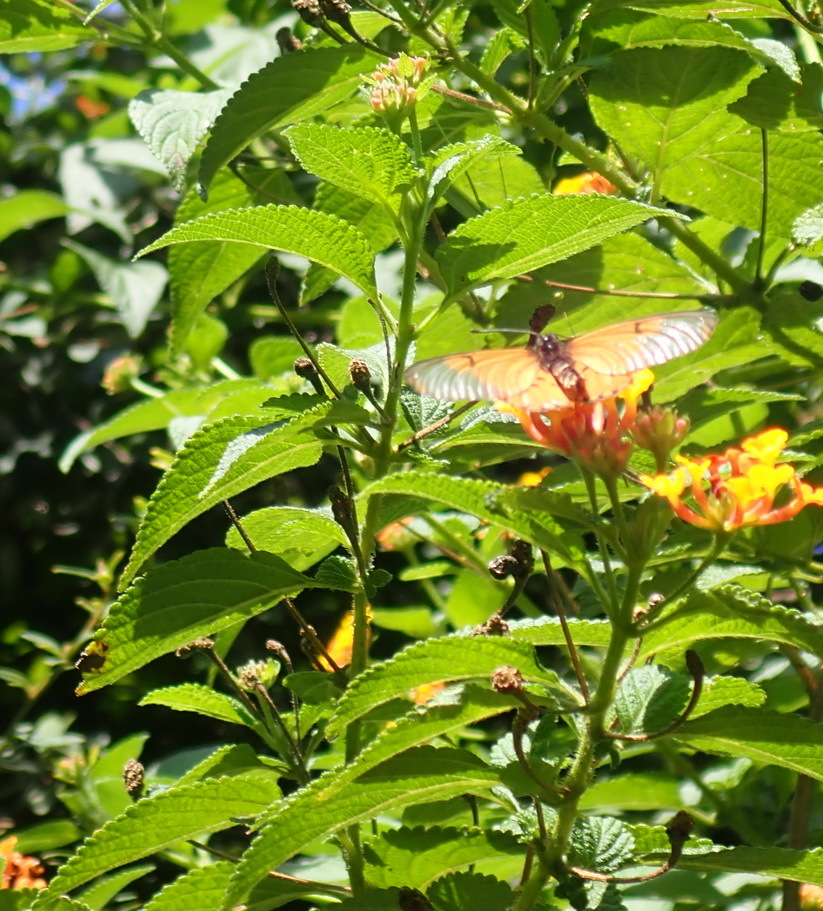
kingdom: Plantae
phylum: Tracheophyta
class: Magnoliopsida
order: Lamiales
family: Verbenaceae
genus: Lantana
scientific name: Lantana camara
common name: Lantana
